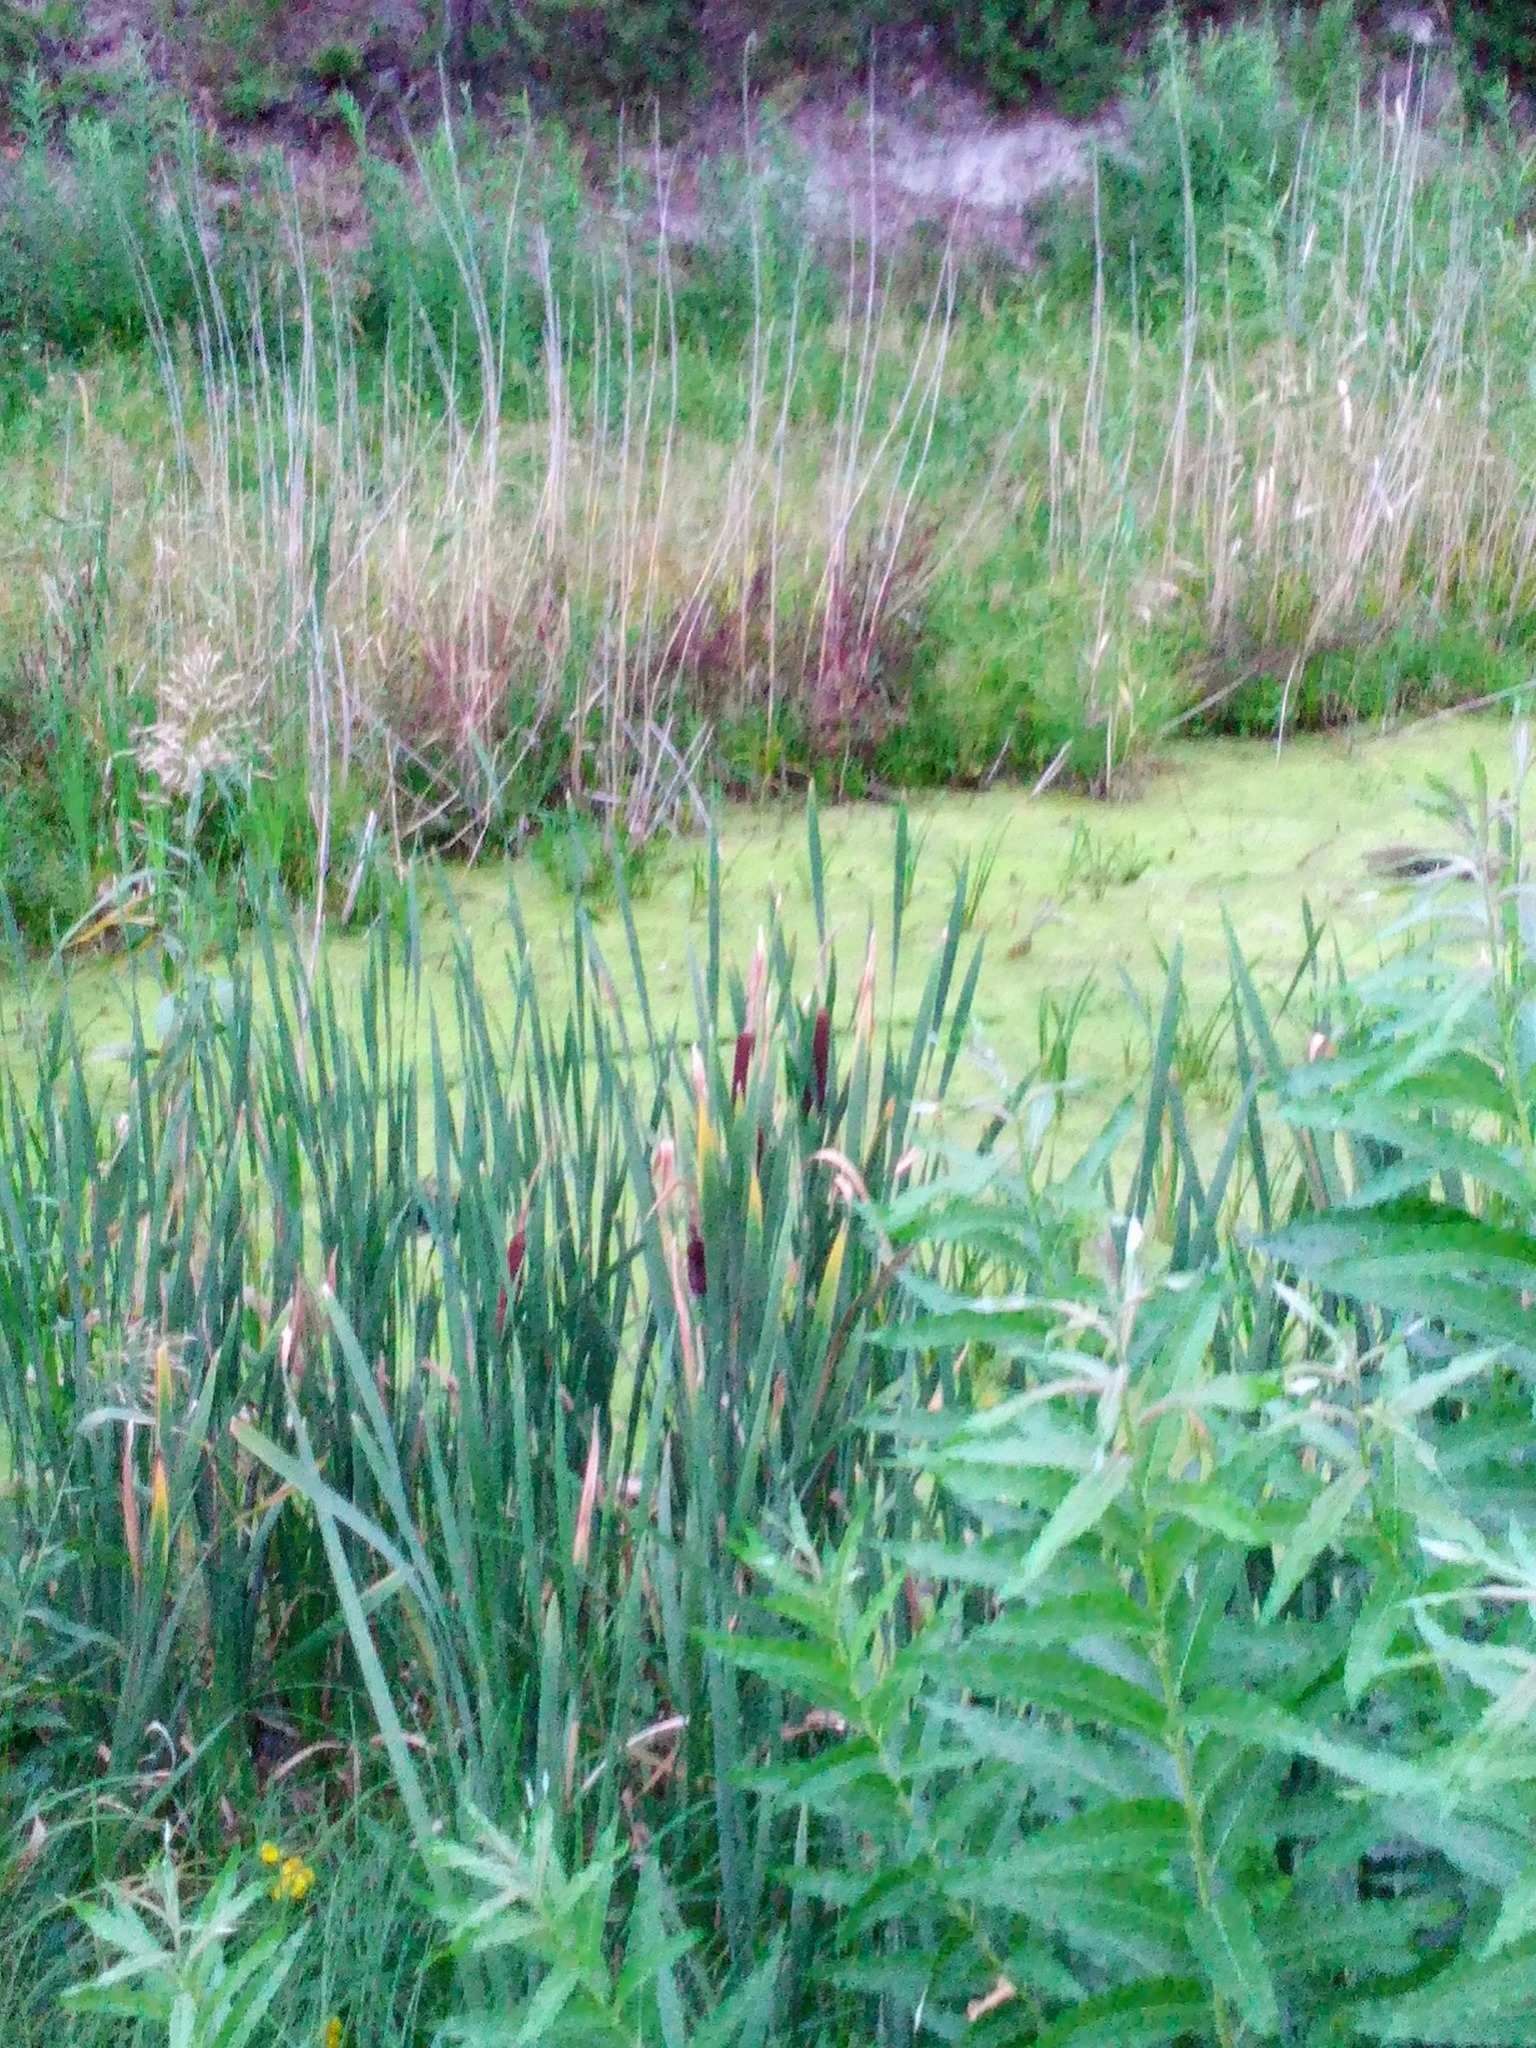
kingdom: Plantae
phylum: Tracheophyta
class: Liliopsida
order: Poales
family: Typhaceae
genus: Typha
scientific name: Typha latifolia
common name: Broadleaf cattail
